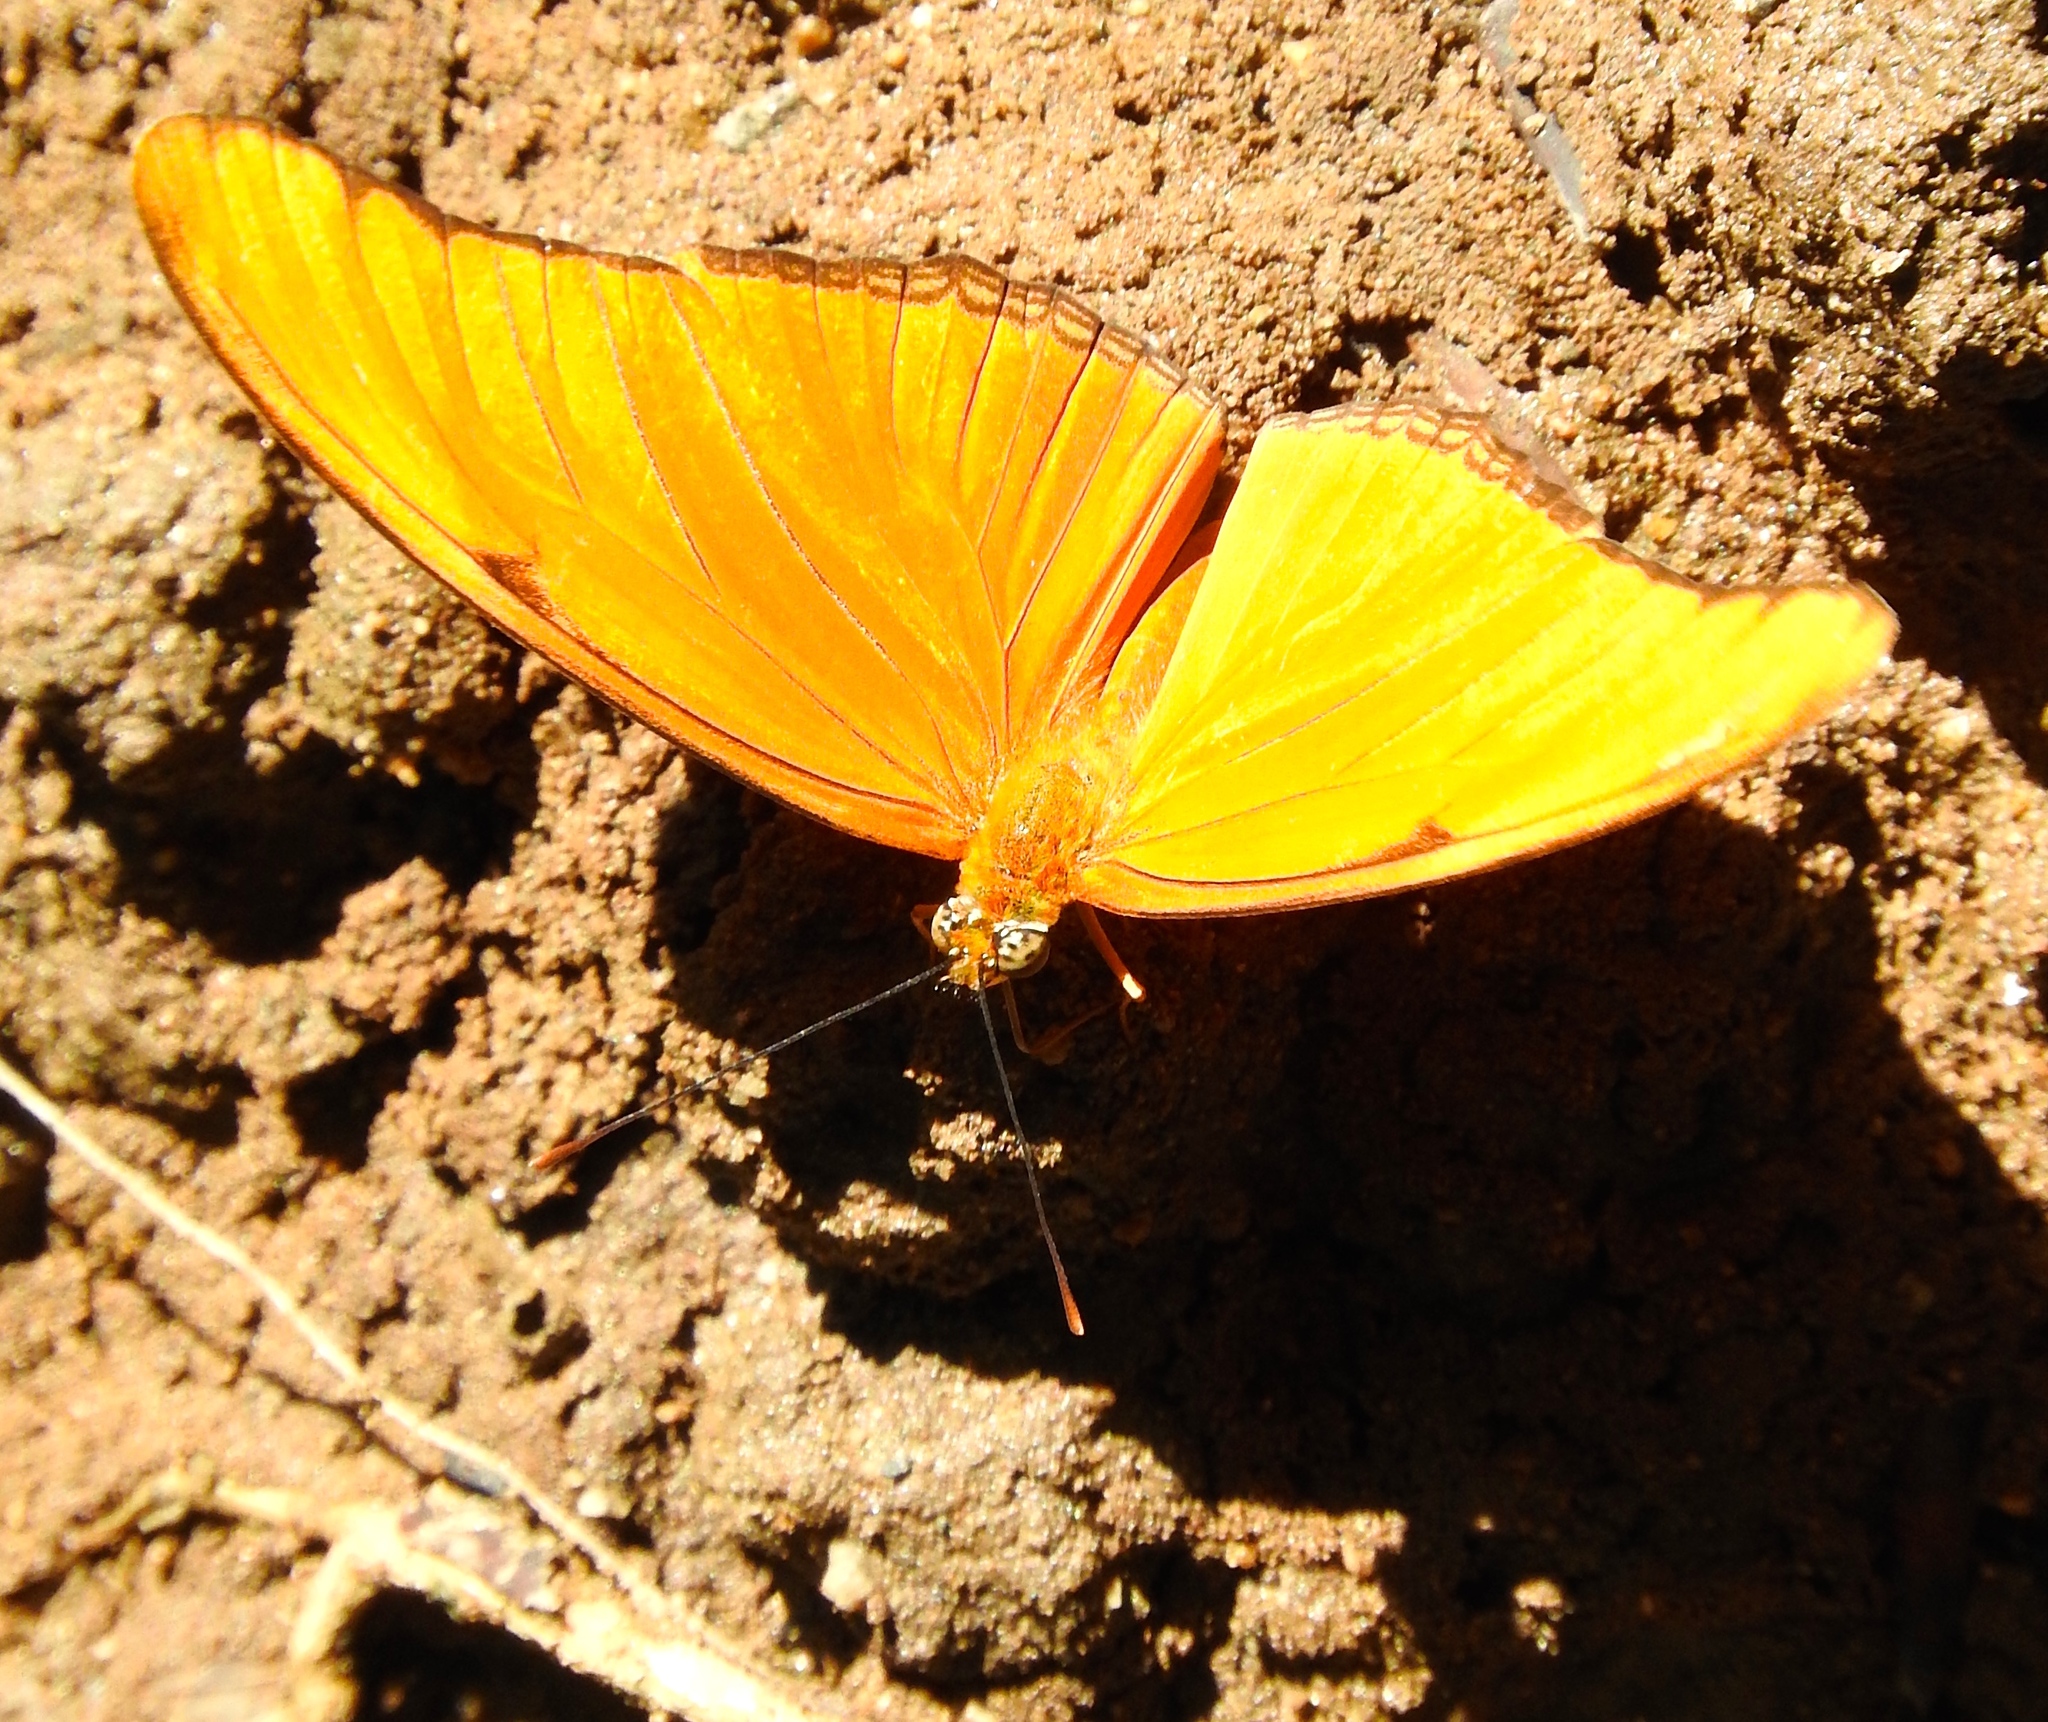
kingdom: Animalia
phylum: Arthropoda
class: Insecta
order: Lepidoptera
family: Nymphalidae
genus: Dryas
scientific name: Dryas iulia
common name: Flambeau
